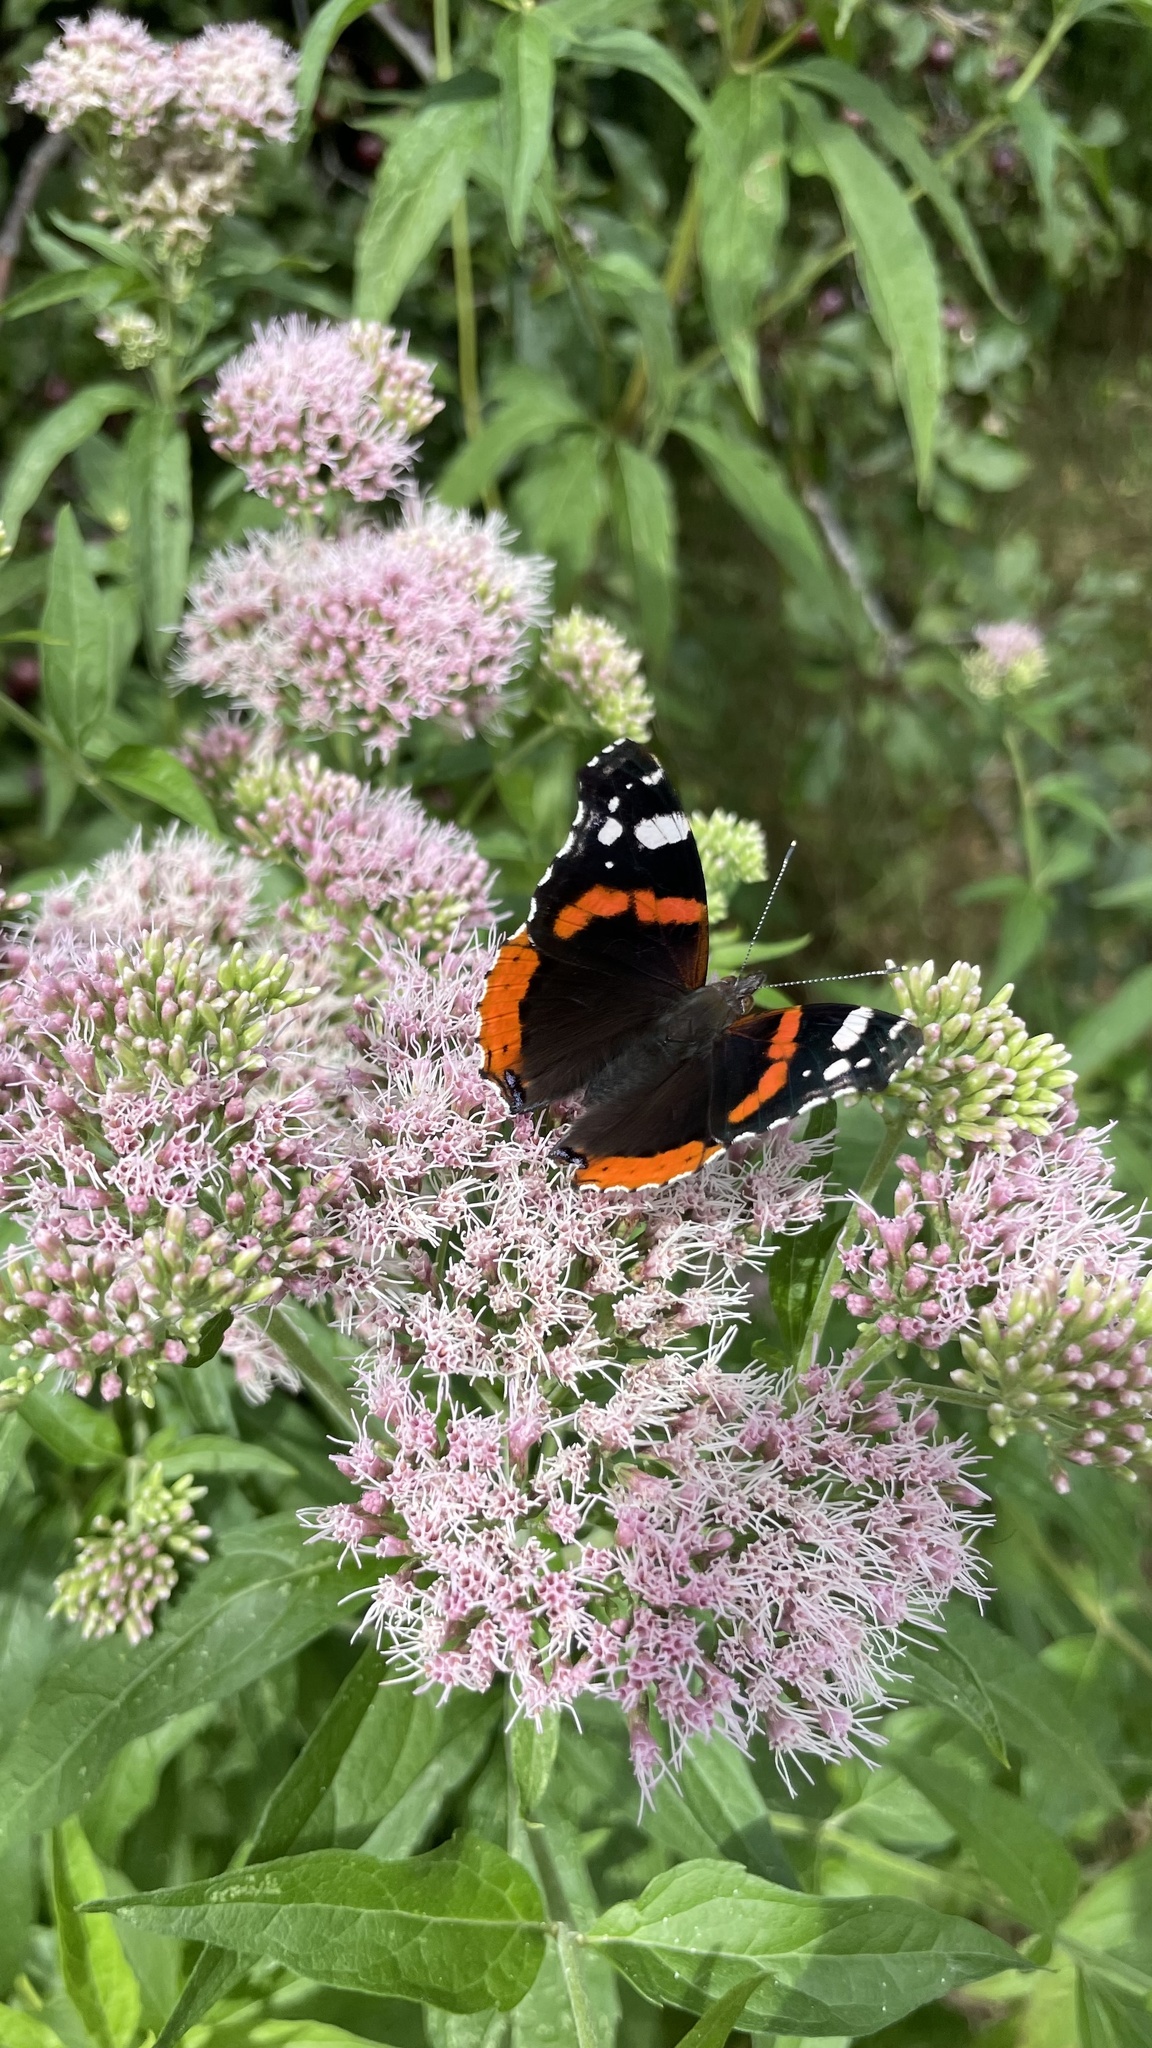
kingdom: Animalia
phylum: Arthropoda
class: Insecta
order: Lepidoptera
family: Nymphalidae
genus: Vanessa
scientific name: Vanessa atalanta
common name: Red admiral
